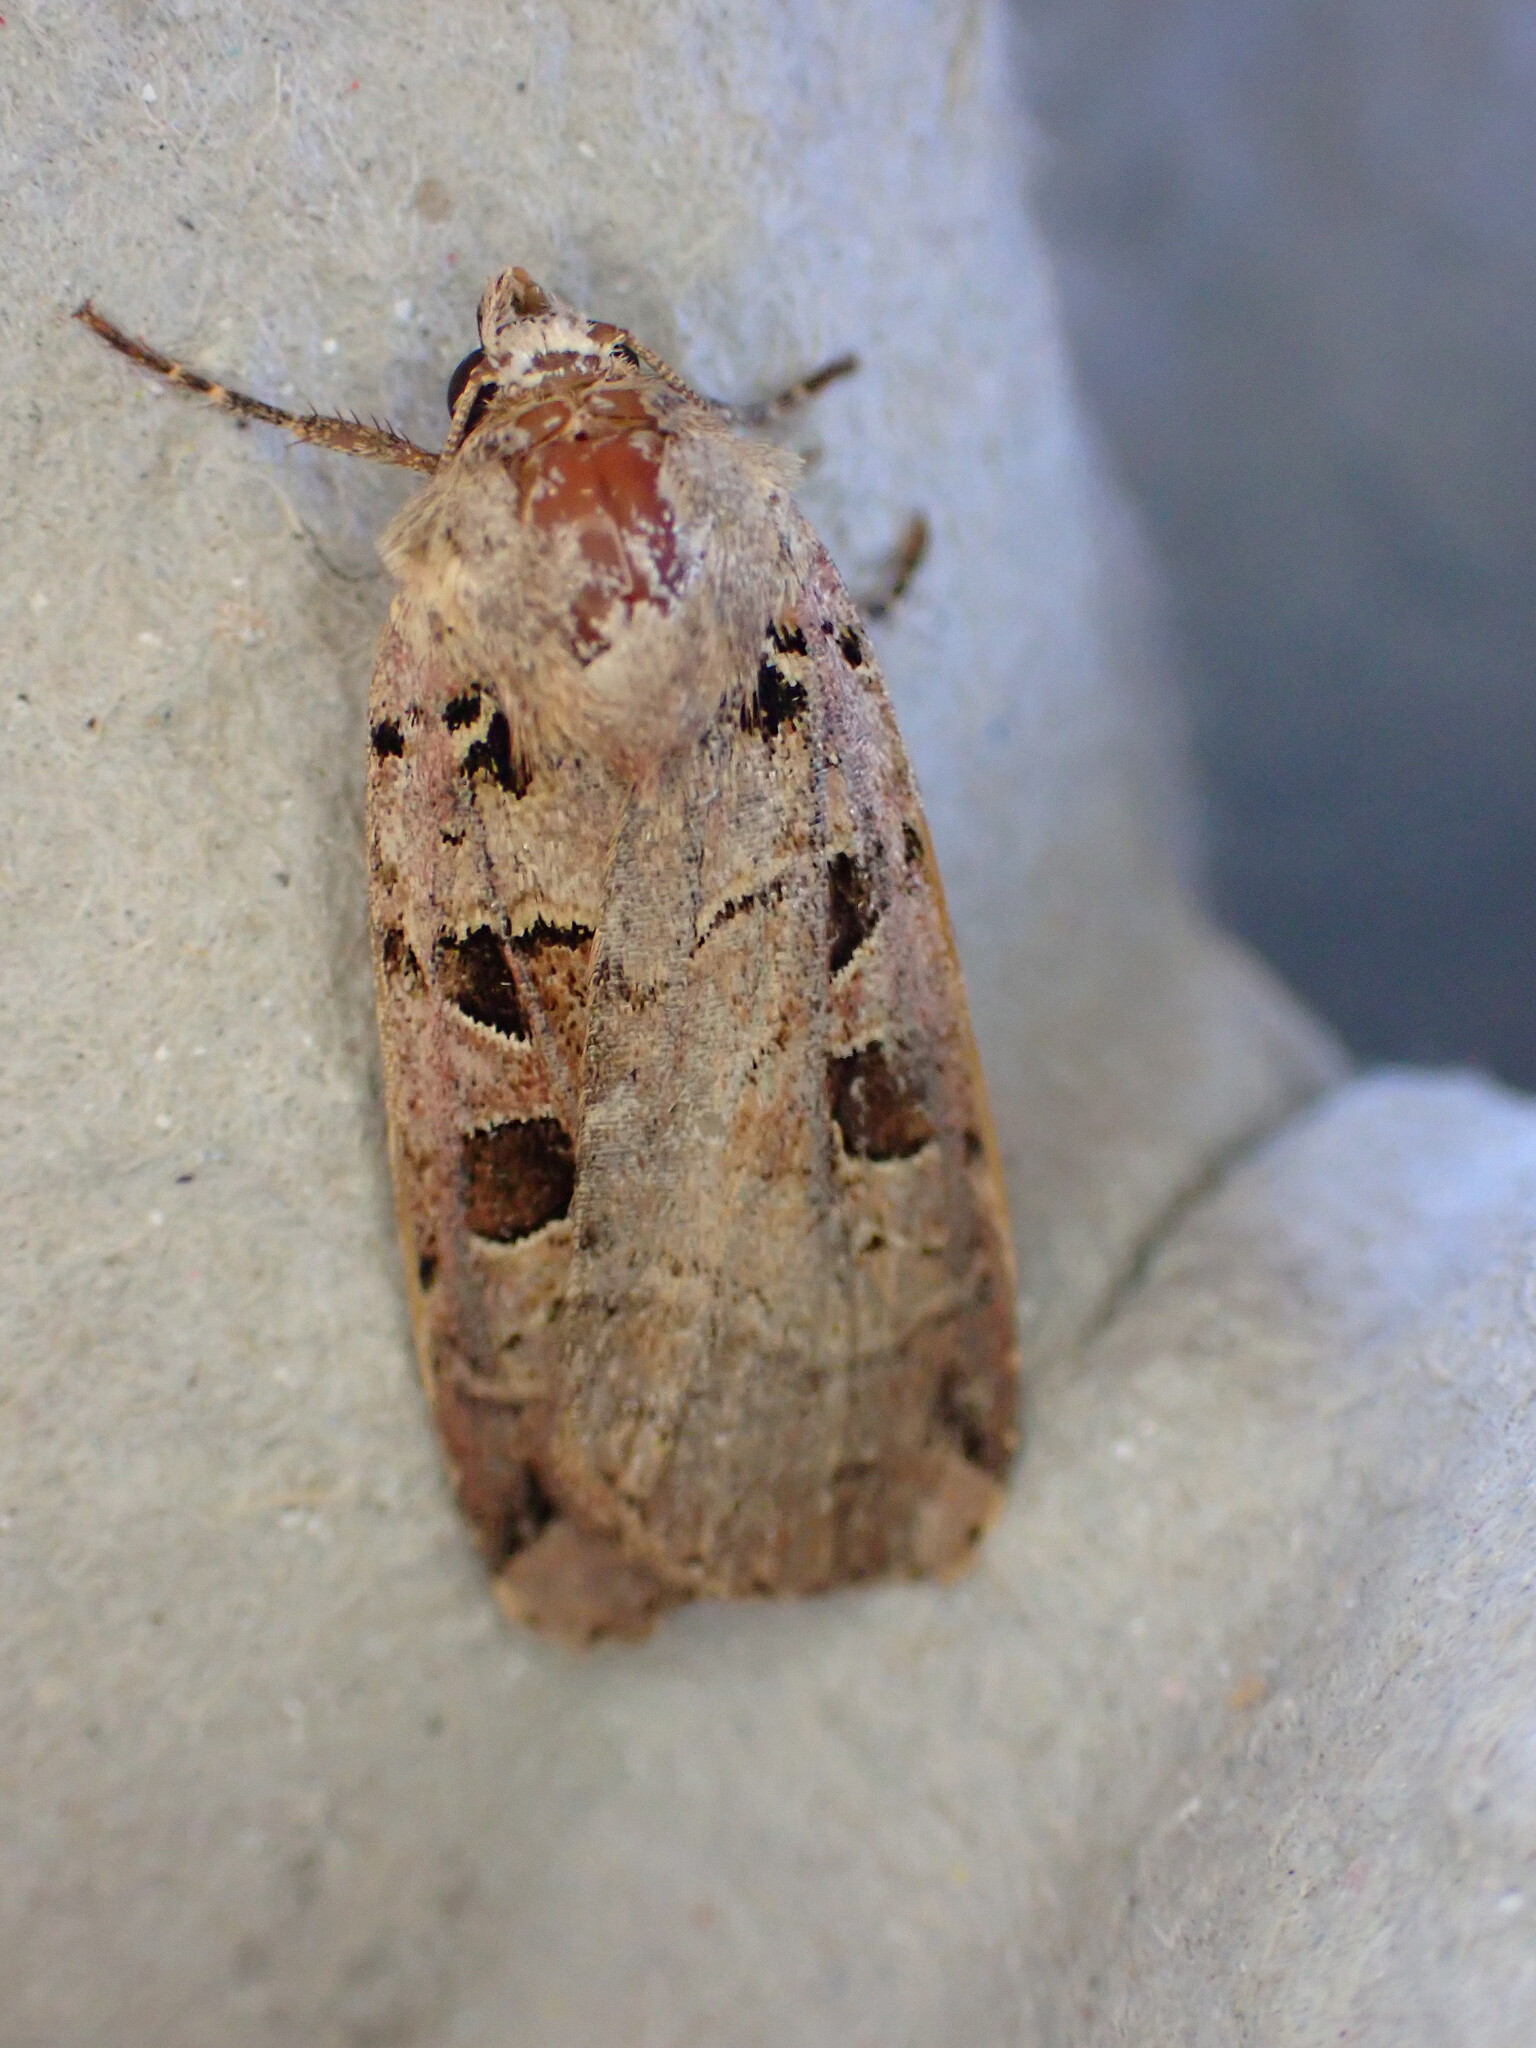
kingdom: Animalia
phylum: Arthropoda
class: Insecta
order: Lepidoptera
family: Noctuidae
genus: Xestia
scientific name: Xestia triangulum
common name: Double square-spot
